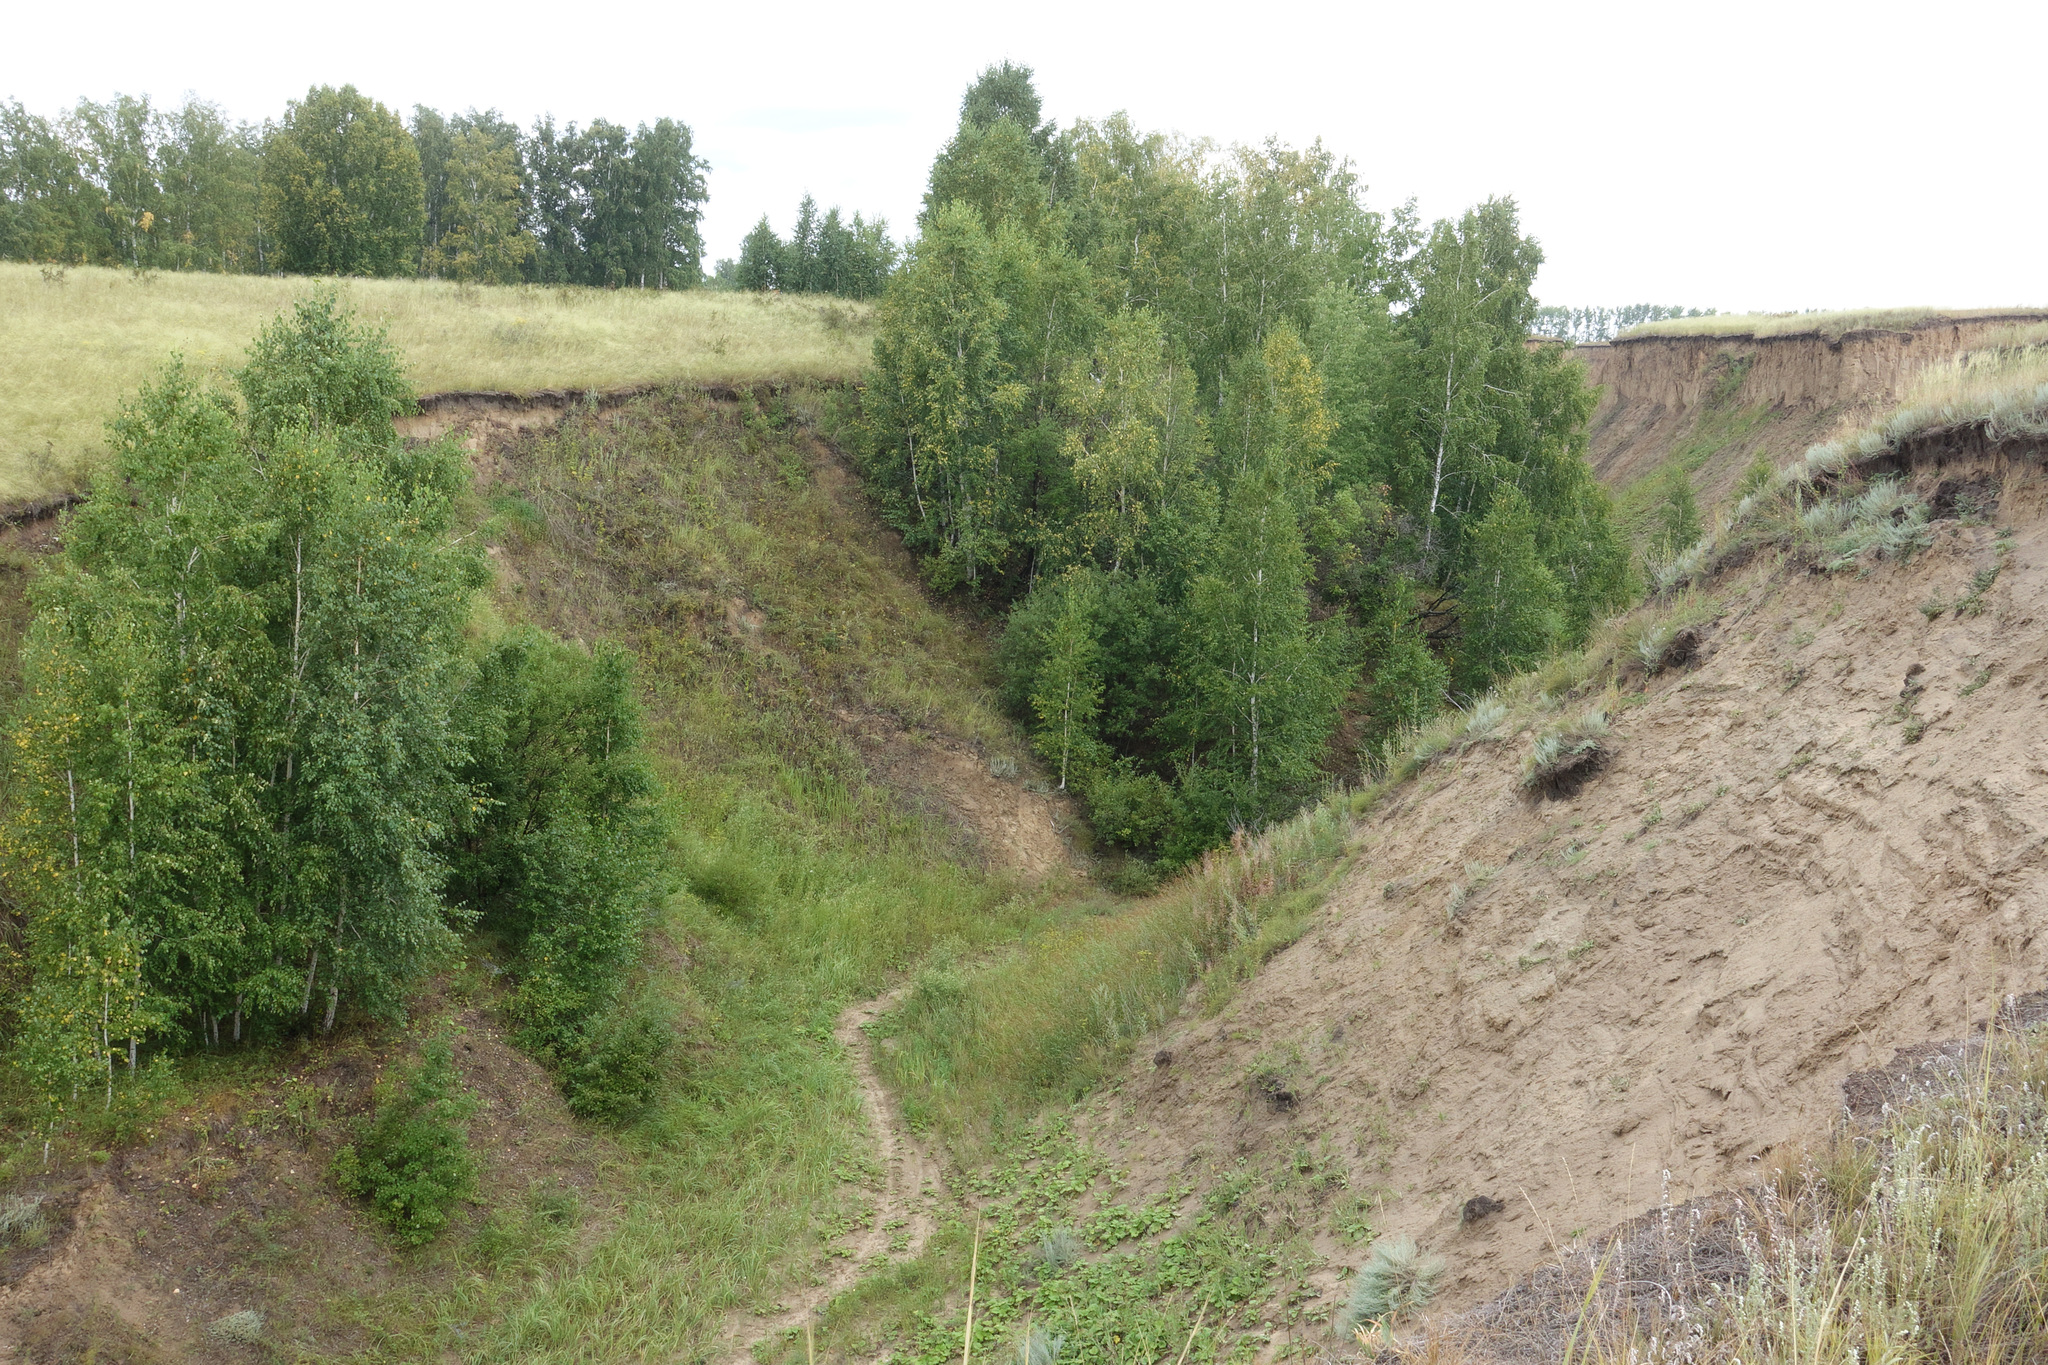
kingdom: Plantae
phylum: Tracheophyta
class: Magnoliopsida
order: Fagales
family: Betulaceae
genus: Betula
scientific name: Betula pendula
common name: Silver birch
